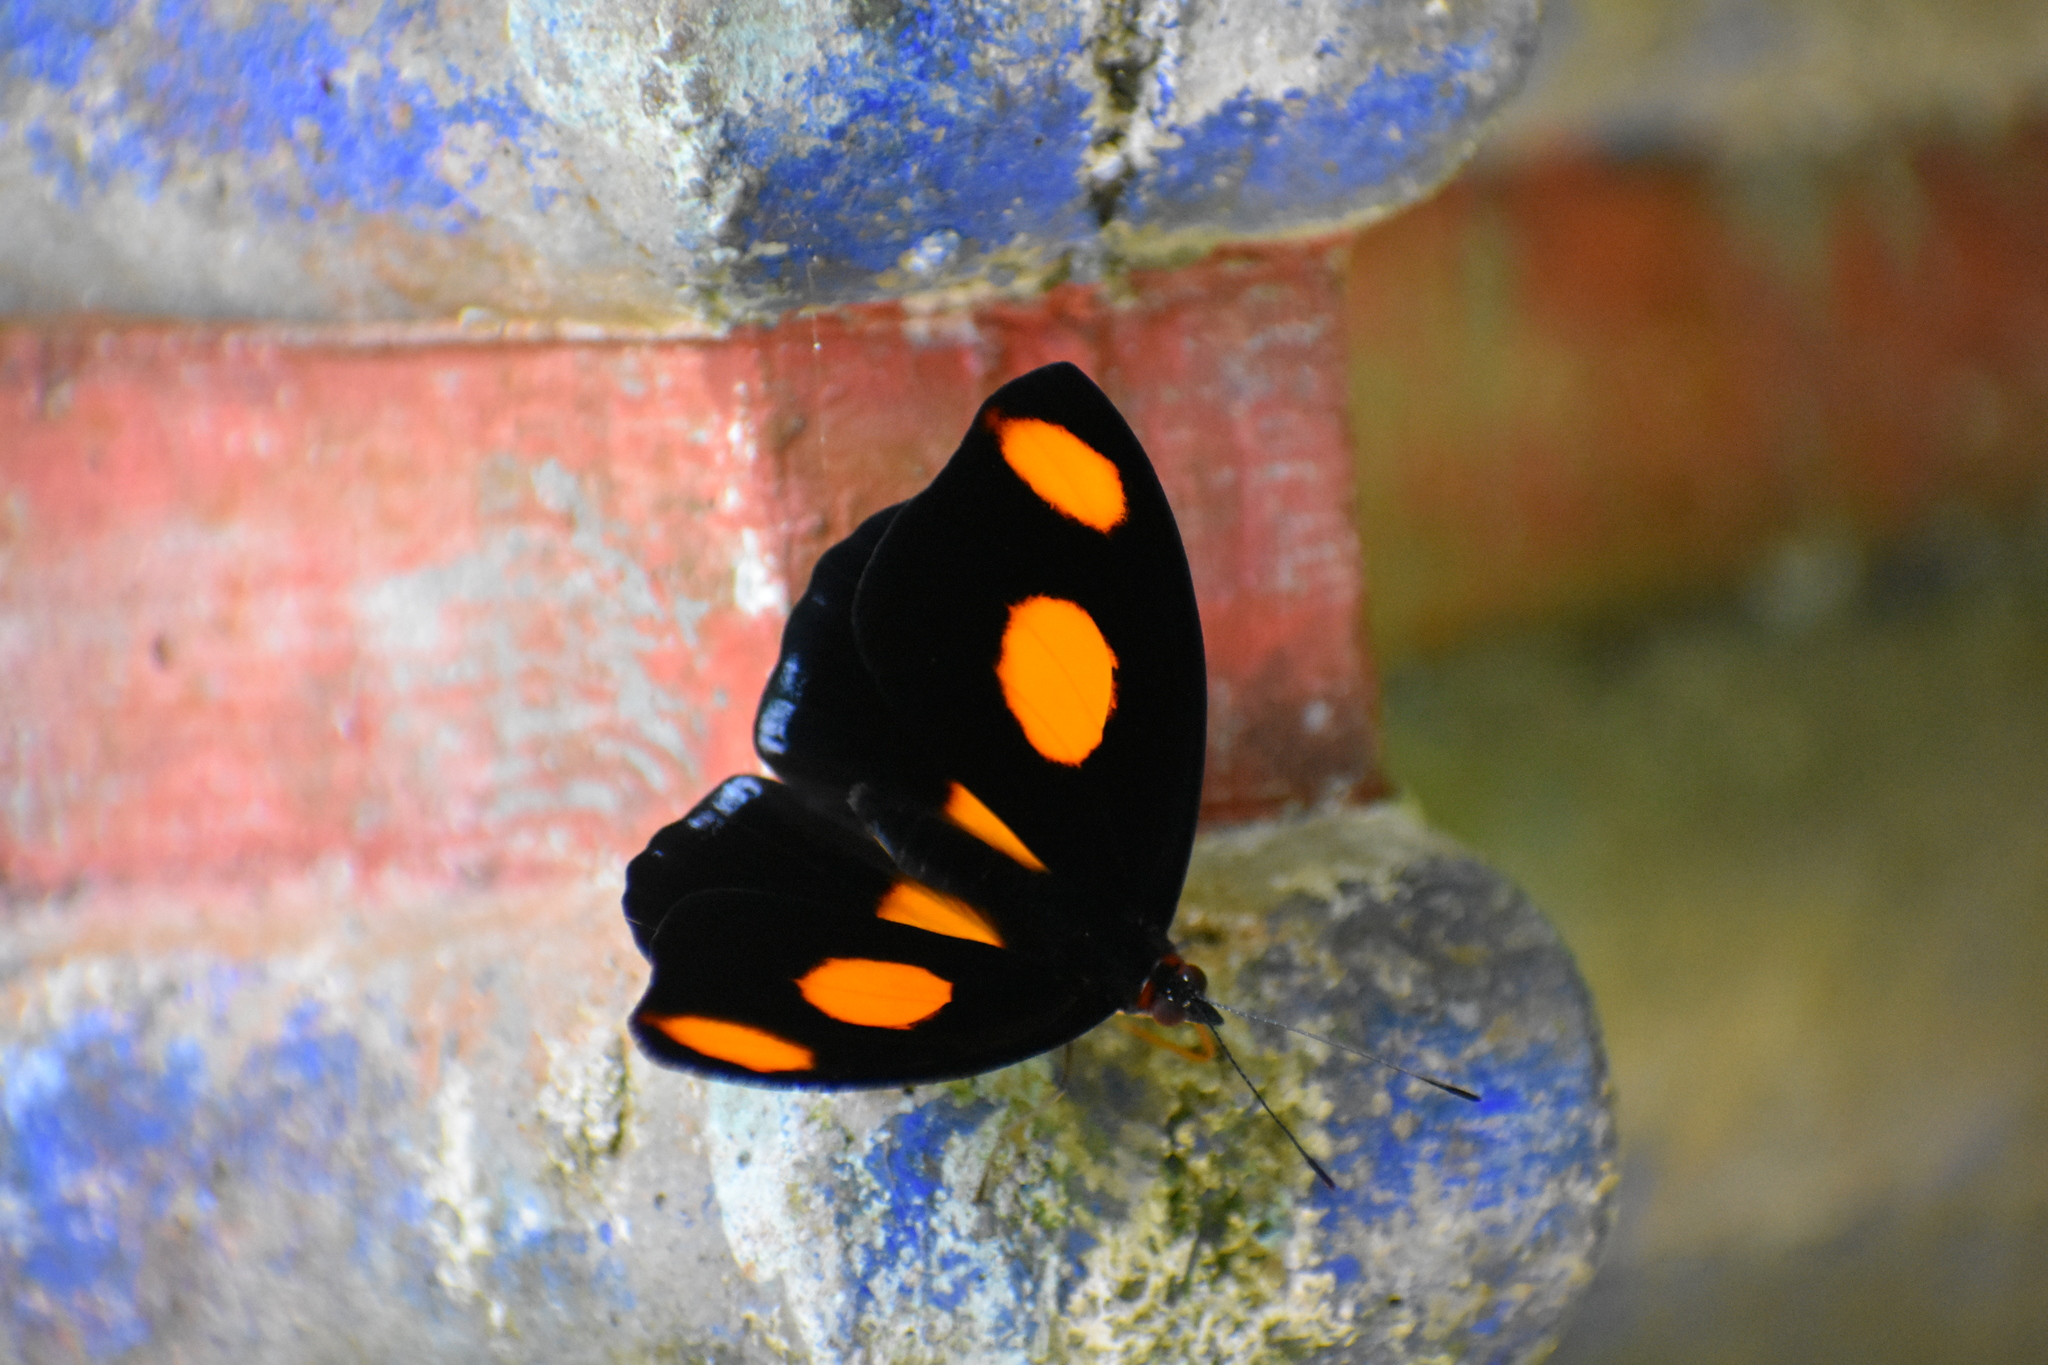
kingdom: Animalia
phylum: Arthropoda
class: Insecta
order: Lepidoptera
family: Nymphalidae
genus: Catonephele
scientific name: Catonephele numilia
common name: Blue-frosted banner
